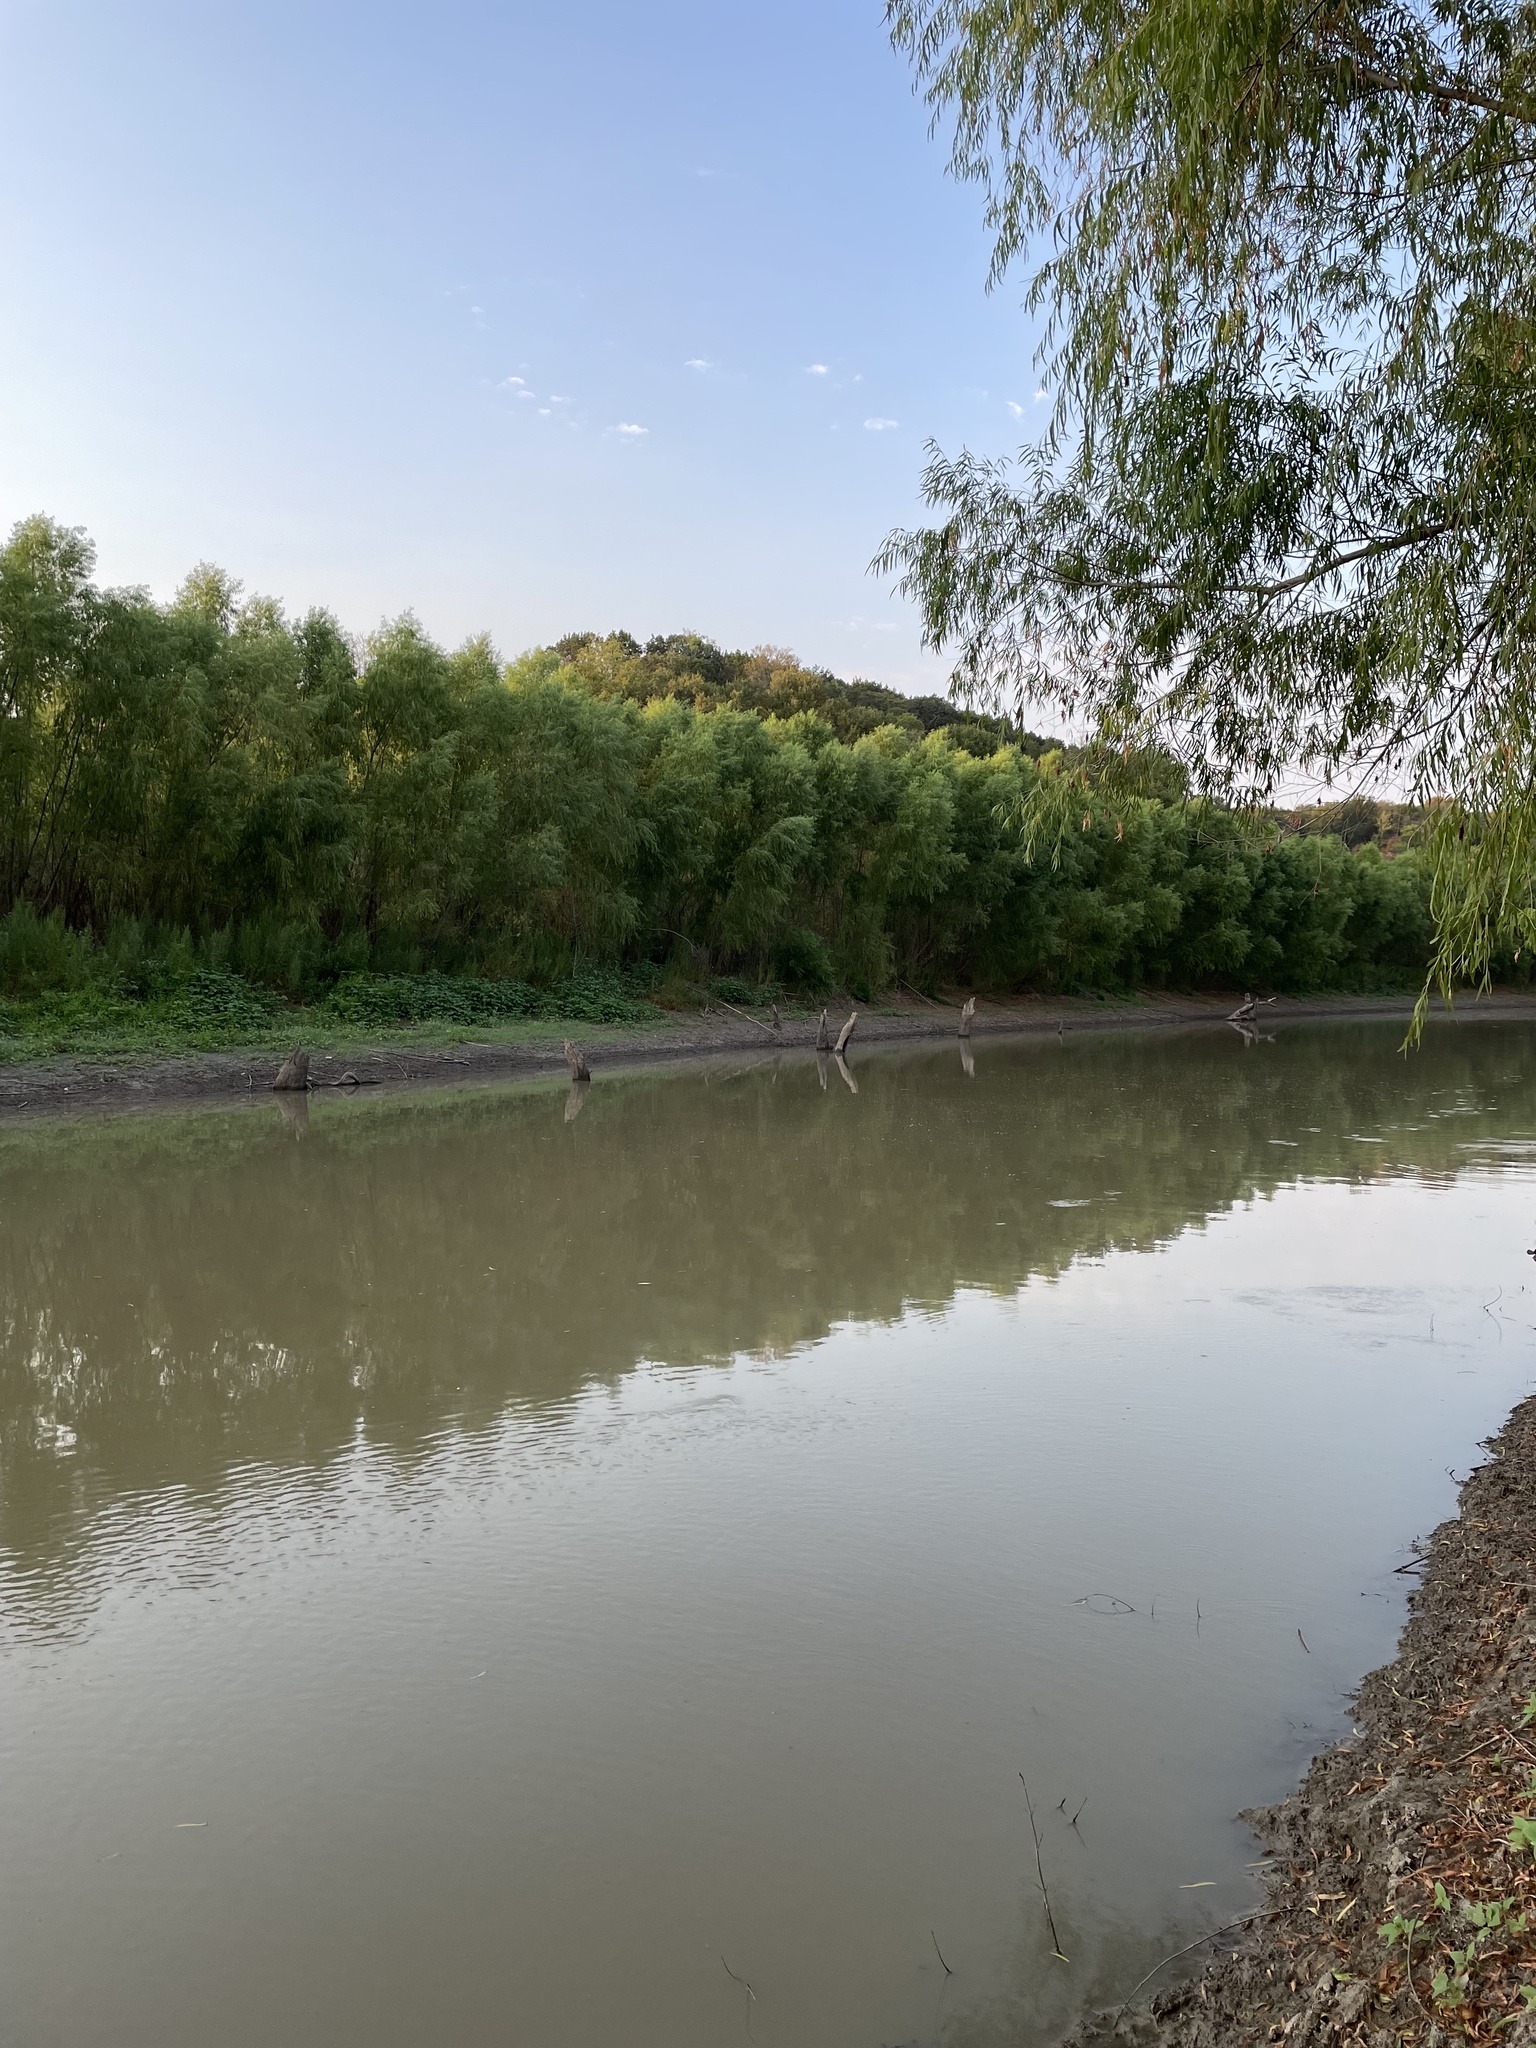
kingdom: Plantae
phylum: Tracheophyta
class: Magnoliopsida
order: Malpighiales
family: Salicaceae
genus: Salix
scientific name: Salix nigra
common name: Black willow
